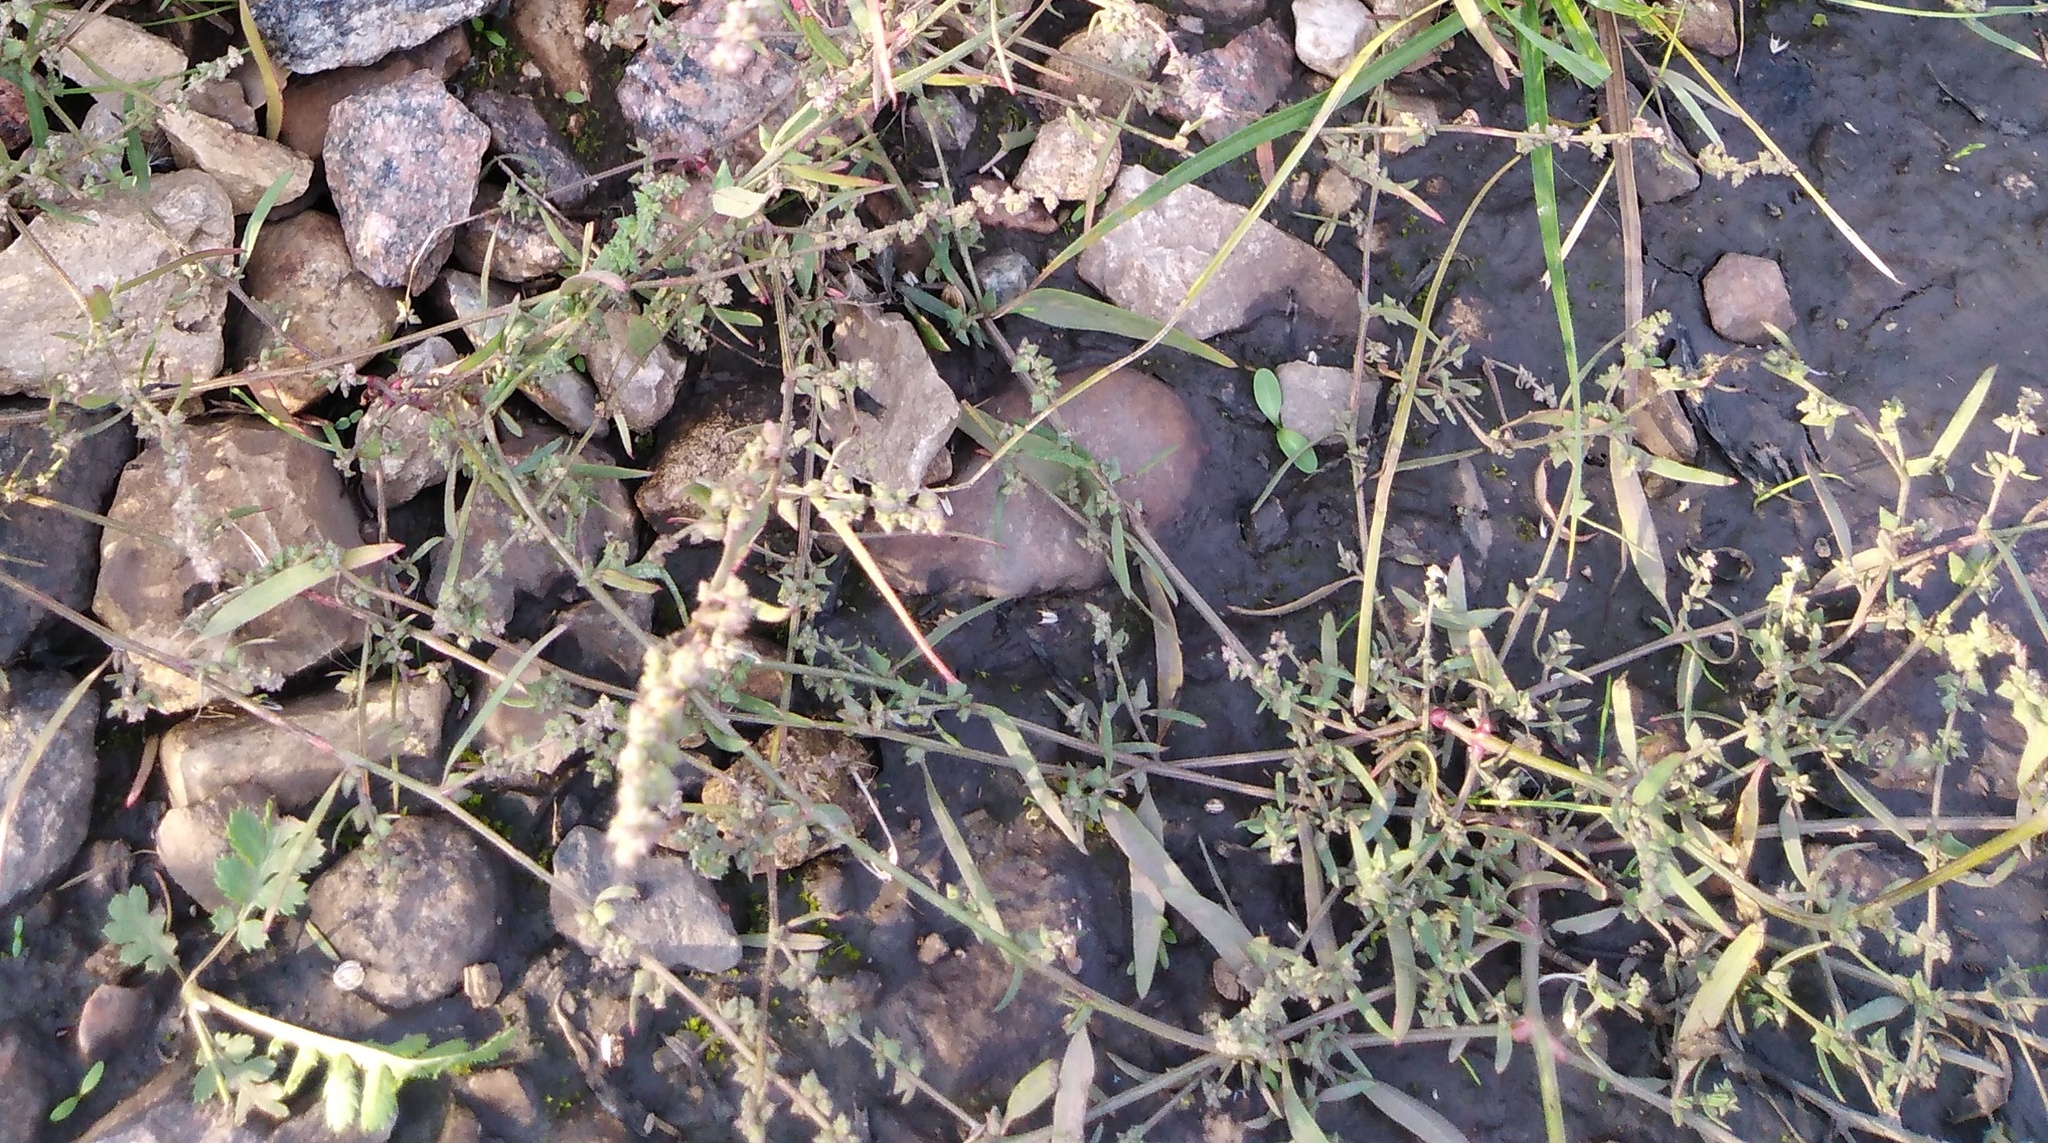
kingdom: Plantae
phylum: Tracheophyta
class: Magnoliopsida
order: Caryophyllales
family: Amaranthaceae
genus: Atriplex
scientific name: Atriplex patula
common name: Common orache
